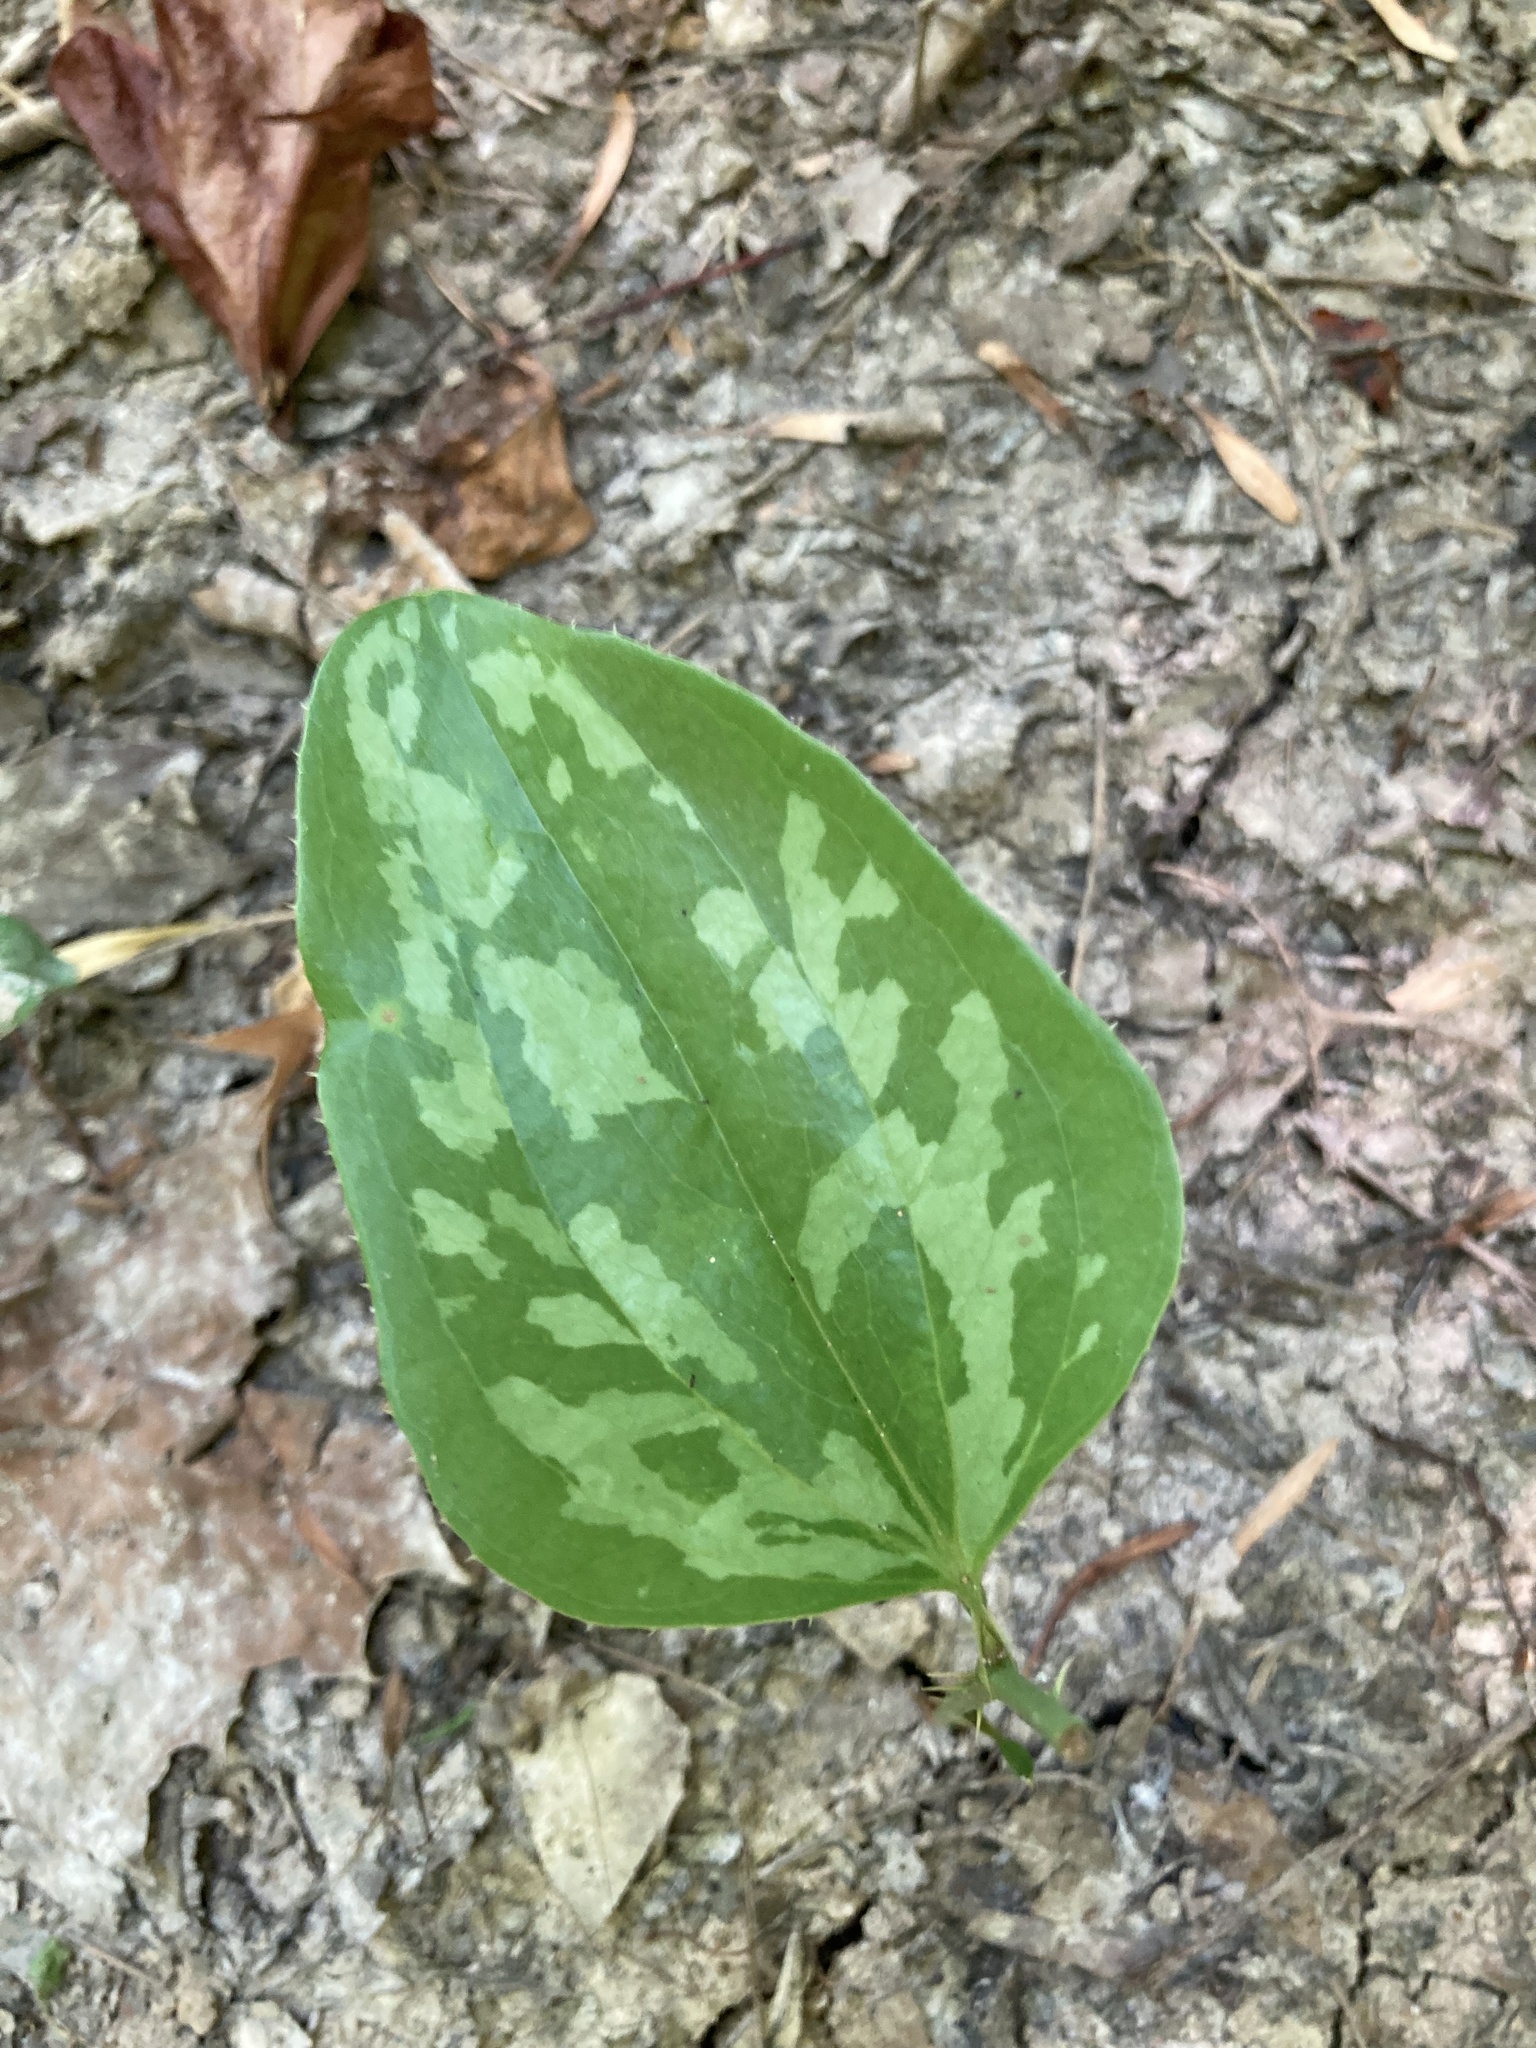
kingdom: Plantae
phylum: Tracheophyta
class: Liliopsida
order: Liliales
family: Smilacaceae
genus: Smilax
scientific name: Smilax bona-nox
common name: Catbrier
